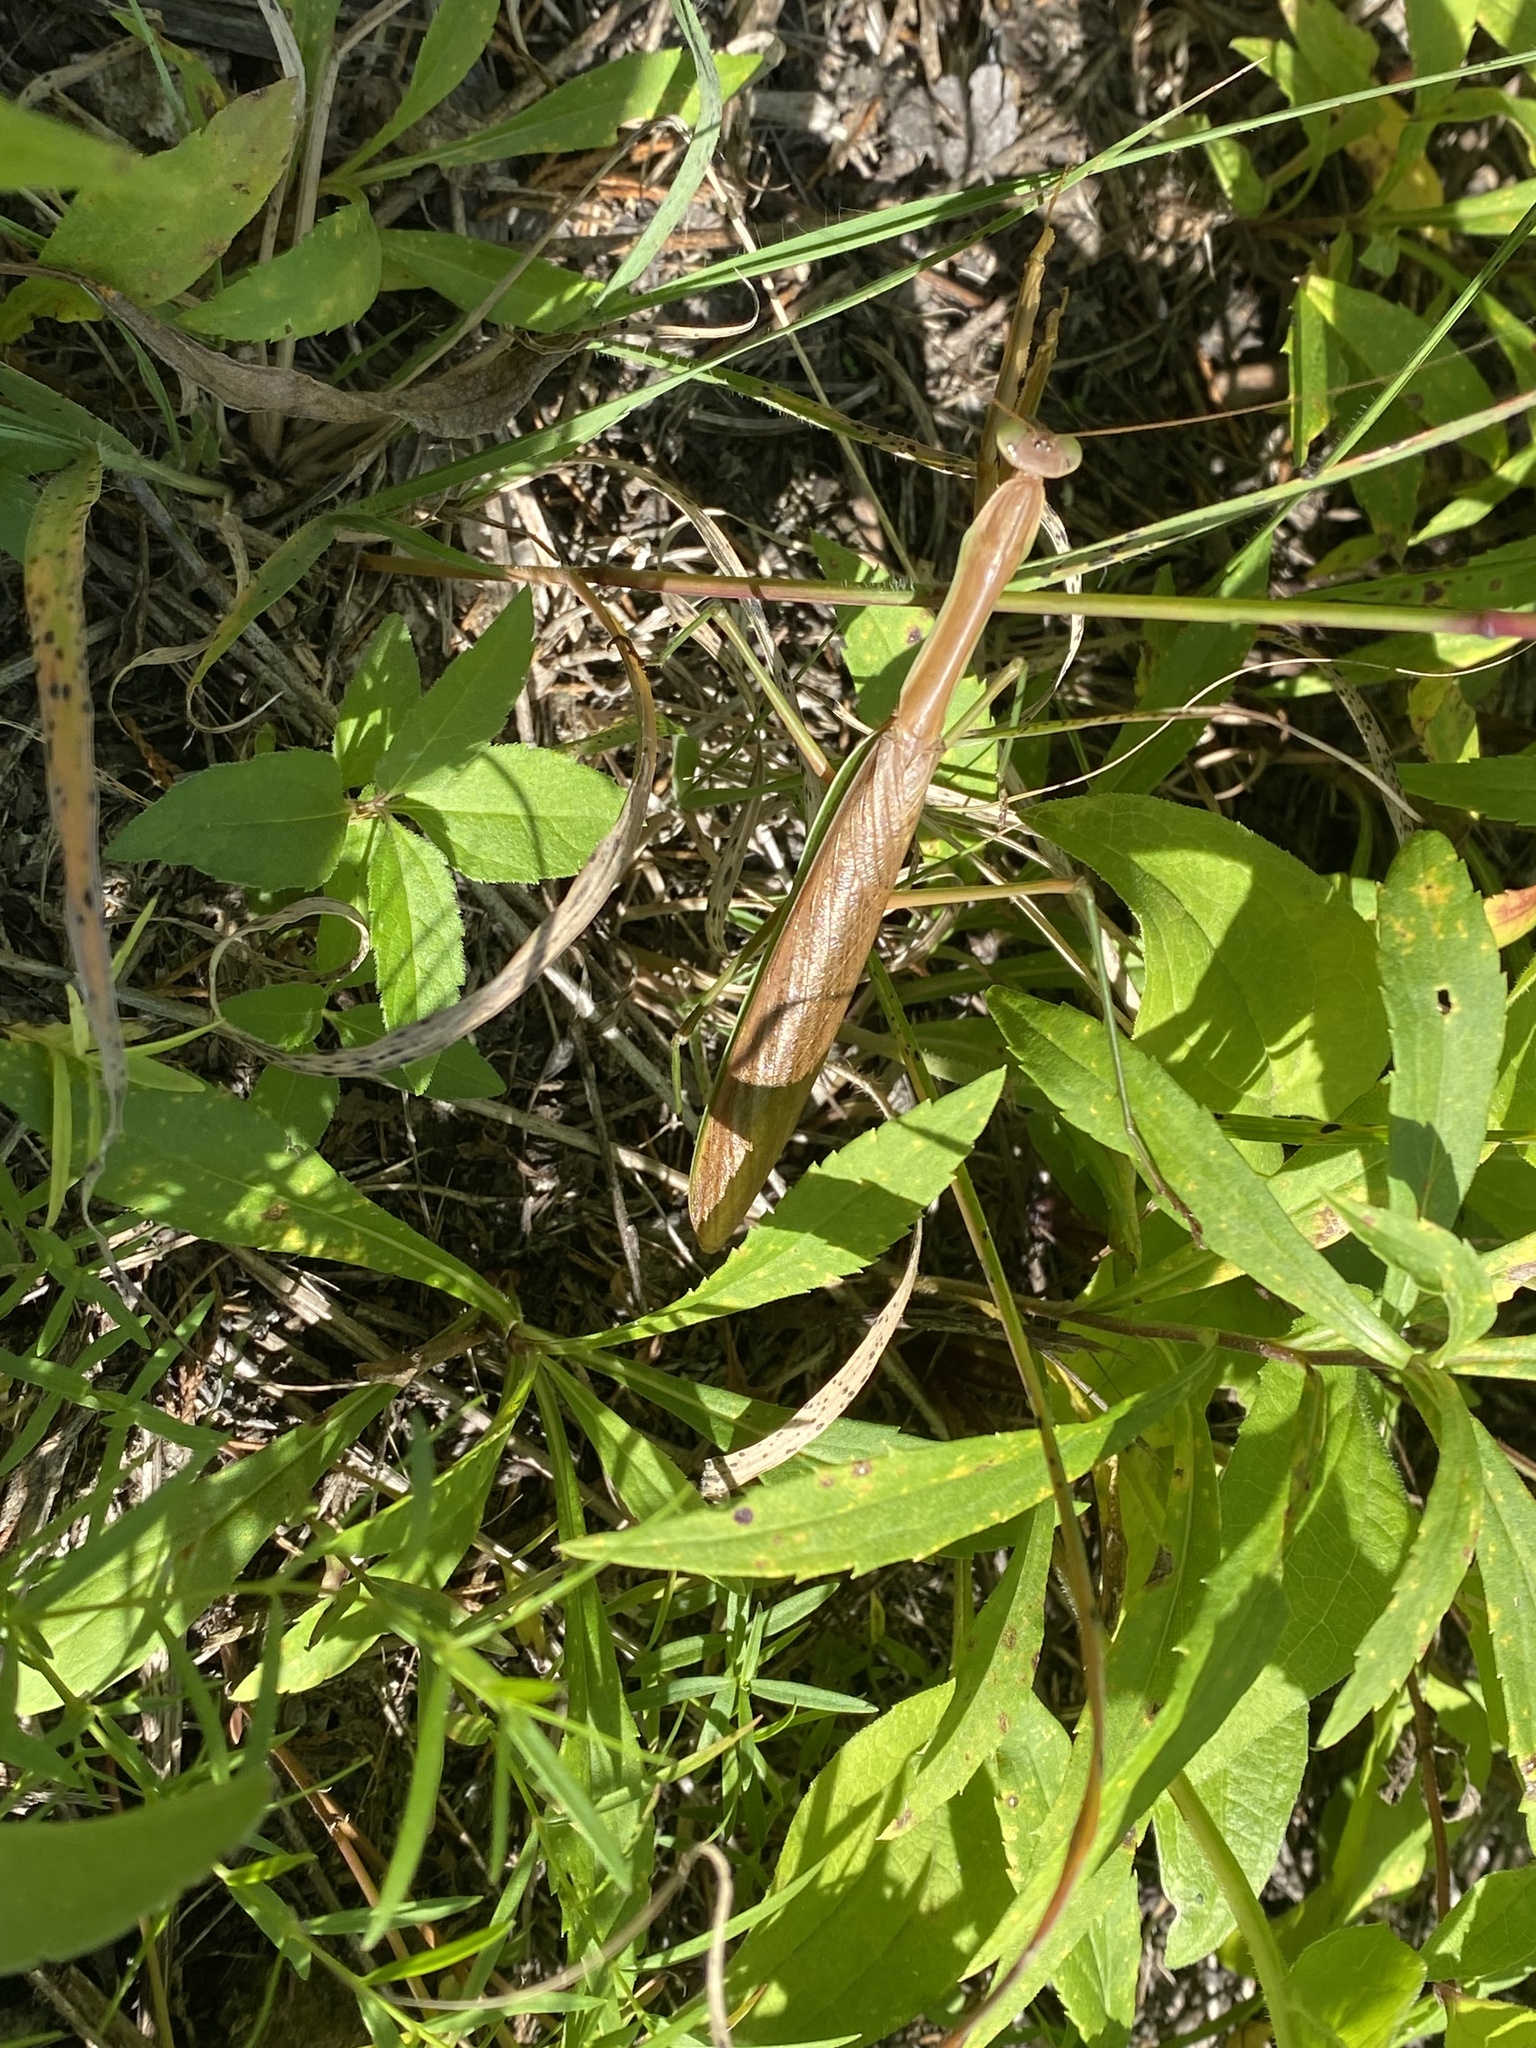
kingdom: Animalia
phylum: Arthropoda
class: Insecta
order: Mantodea
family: Mantidae
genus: Tenodera
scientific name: Tenodera sinensis
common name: Chinese mantis
